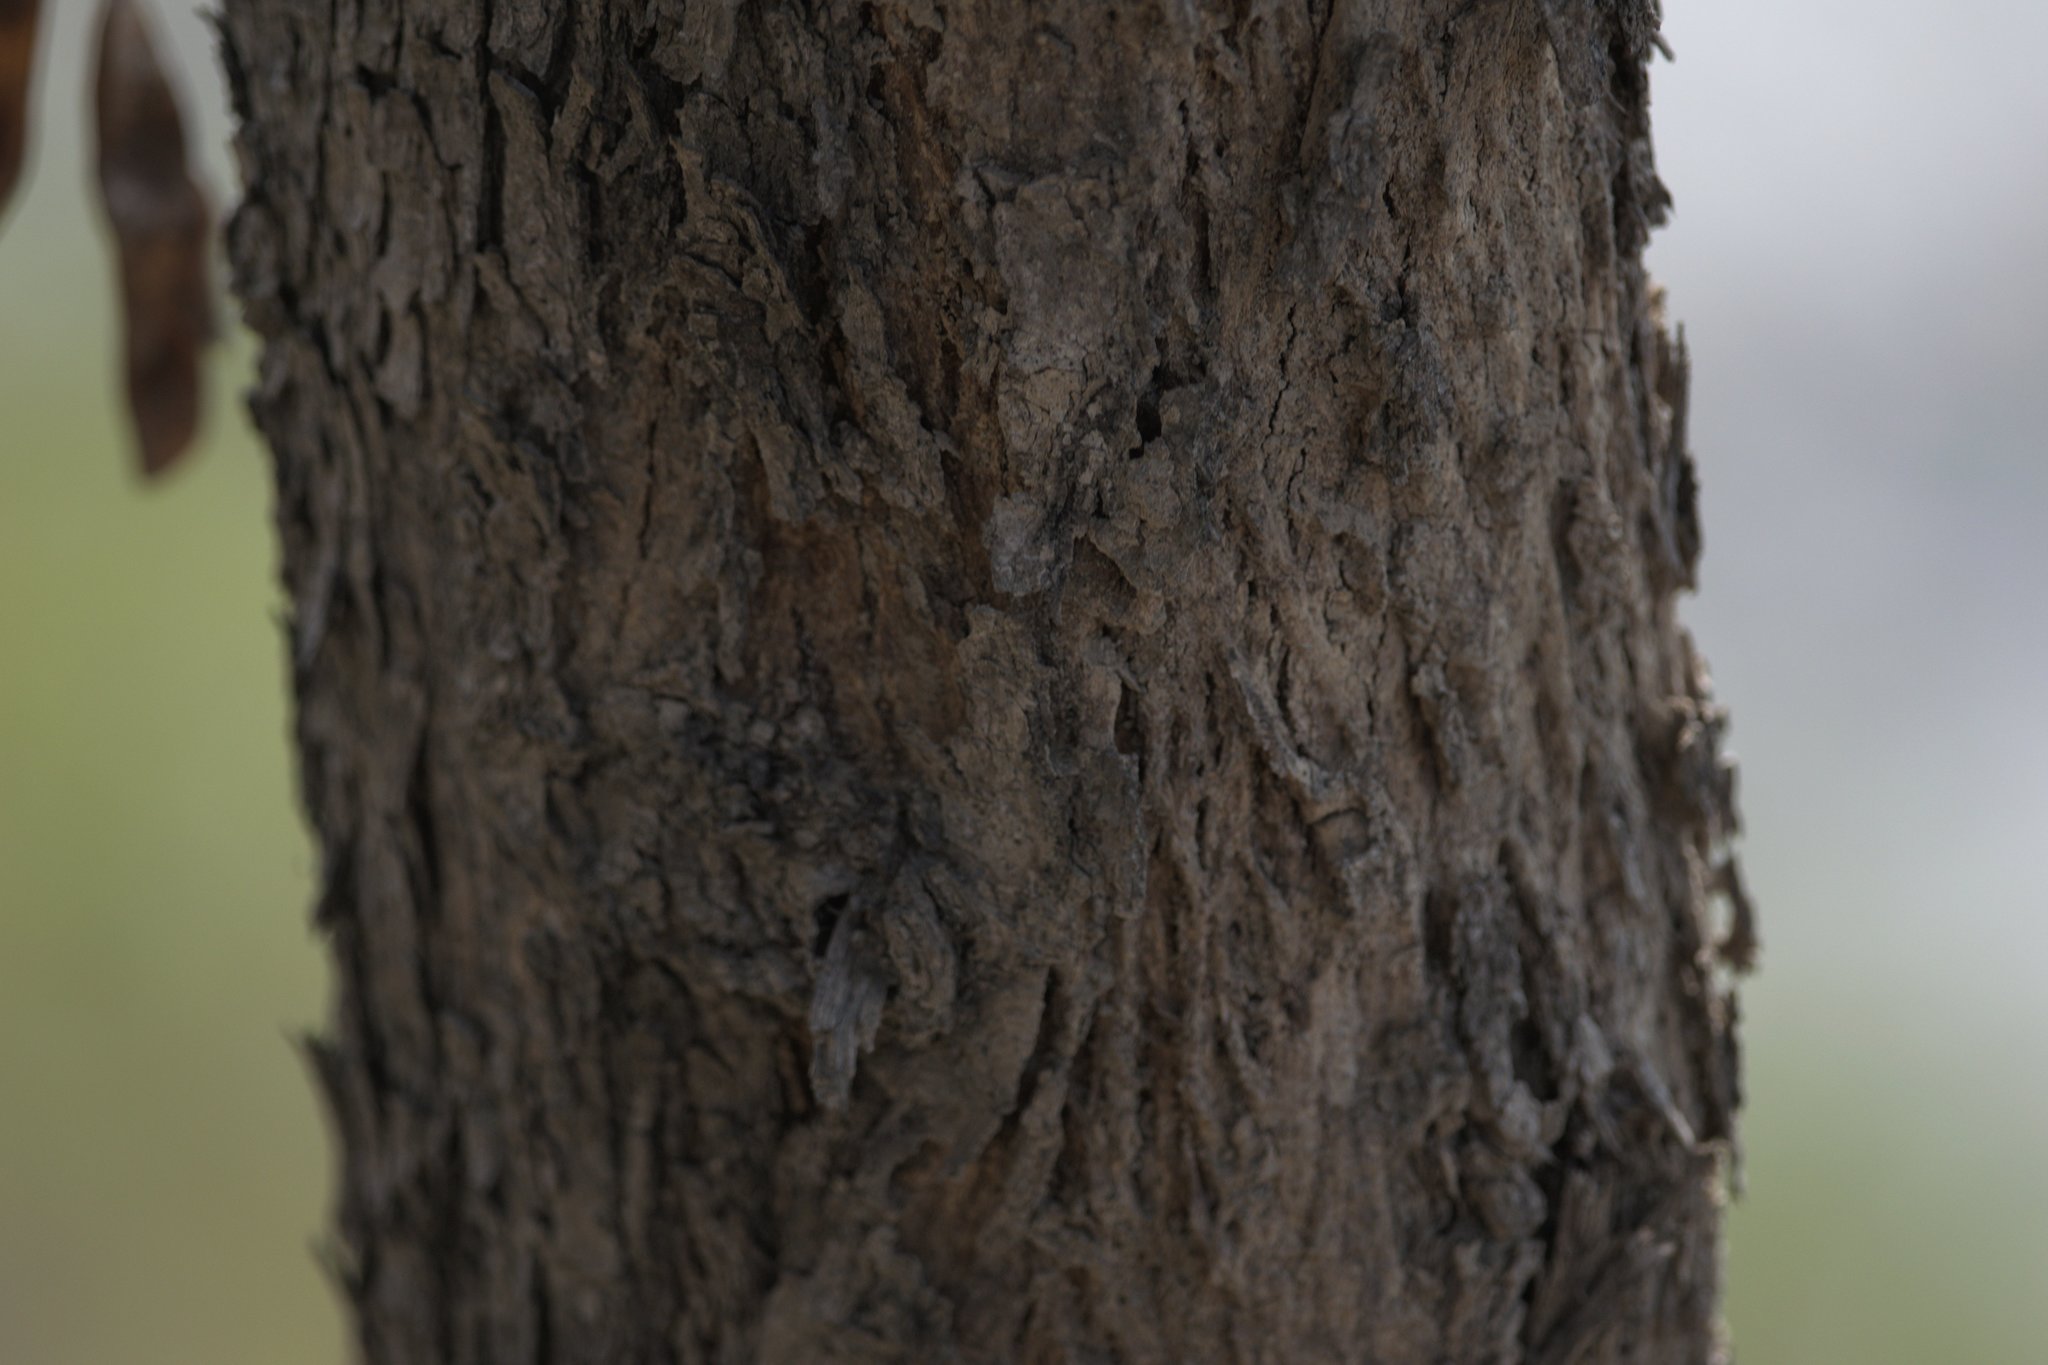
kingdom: Plantae
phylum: Tracheophyta
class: Magnoliopsida
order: Fabales
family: Fabaceae
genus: Dalbergia
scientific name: Dalbergia sissoo
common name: Indian rosewood
